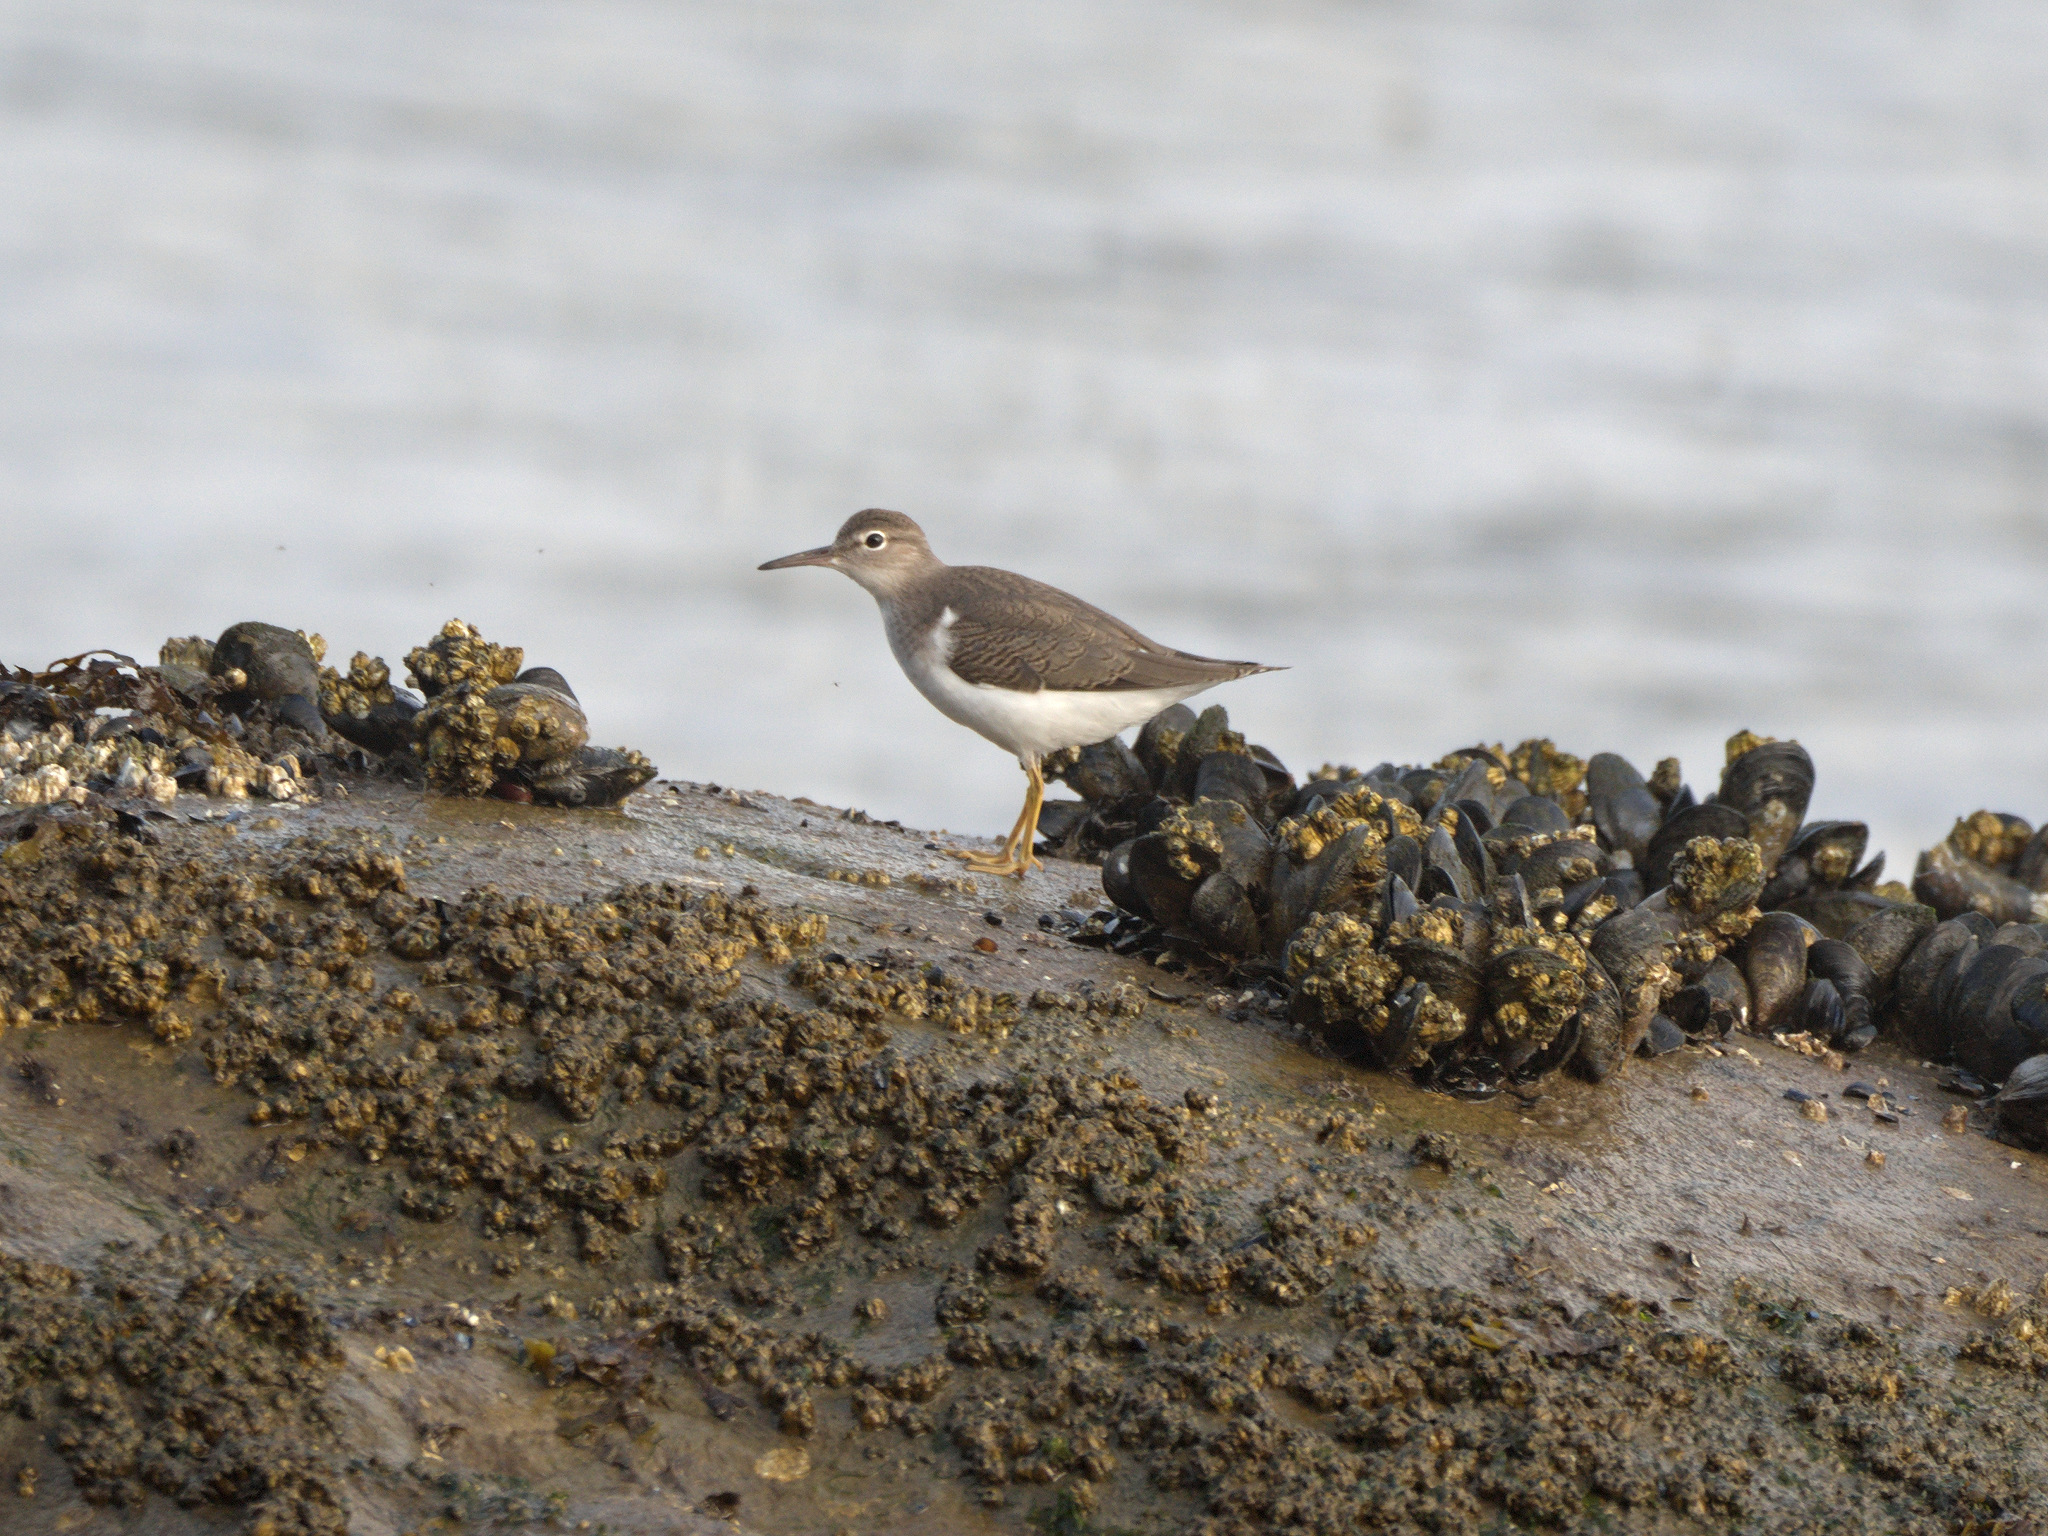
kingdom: Animalia
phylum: Chordata
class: Aves
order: Charadriiformes
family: Scolopacidae
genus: Actitis
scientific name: Actitis macularius
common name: Spotted sandpiper
